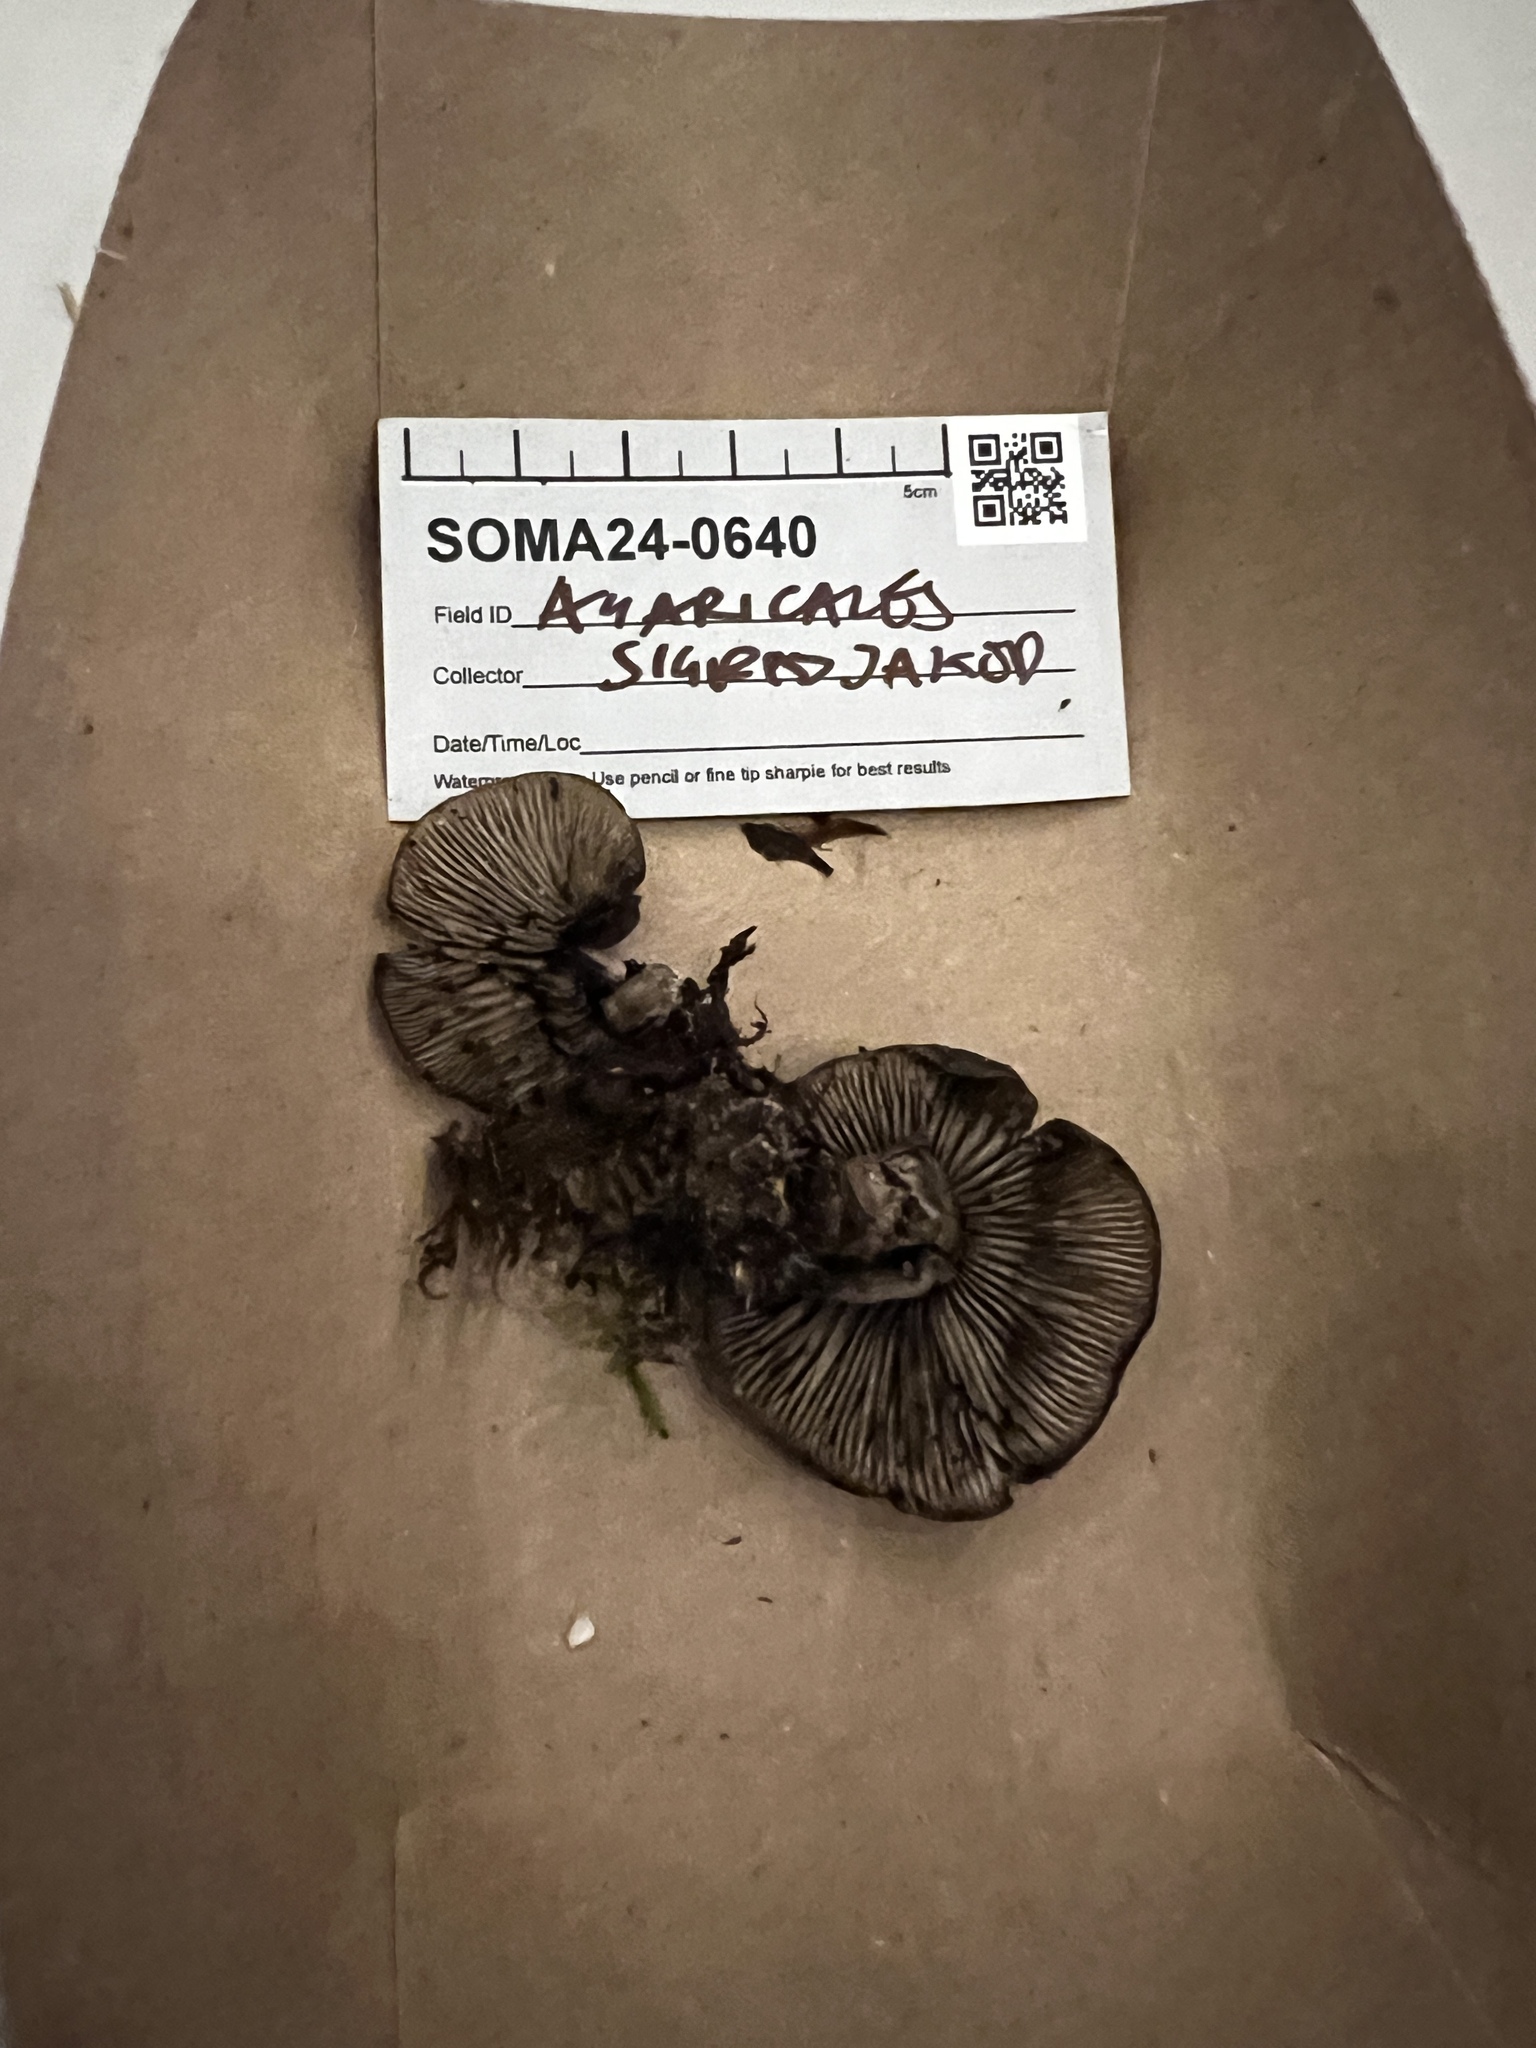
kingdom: Fungi
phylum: Basidiomycota
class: Agaricomycetes
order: Agaricales
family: Lyophyllaceae
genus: Lyophyllum
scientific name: Lyophyllum semitale
